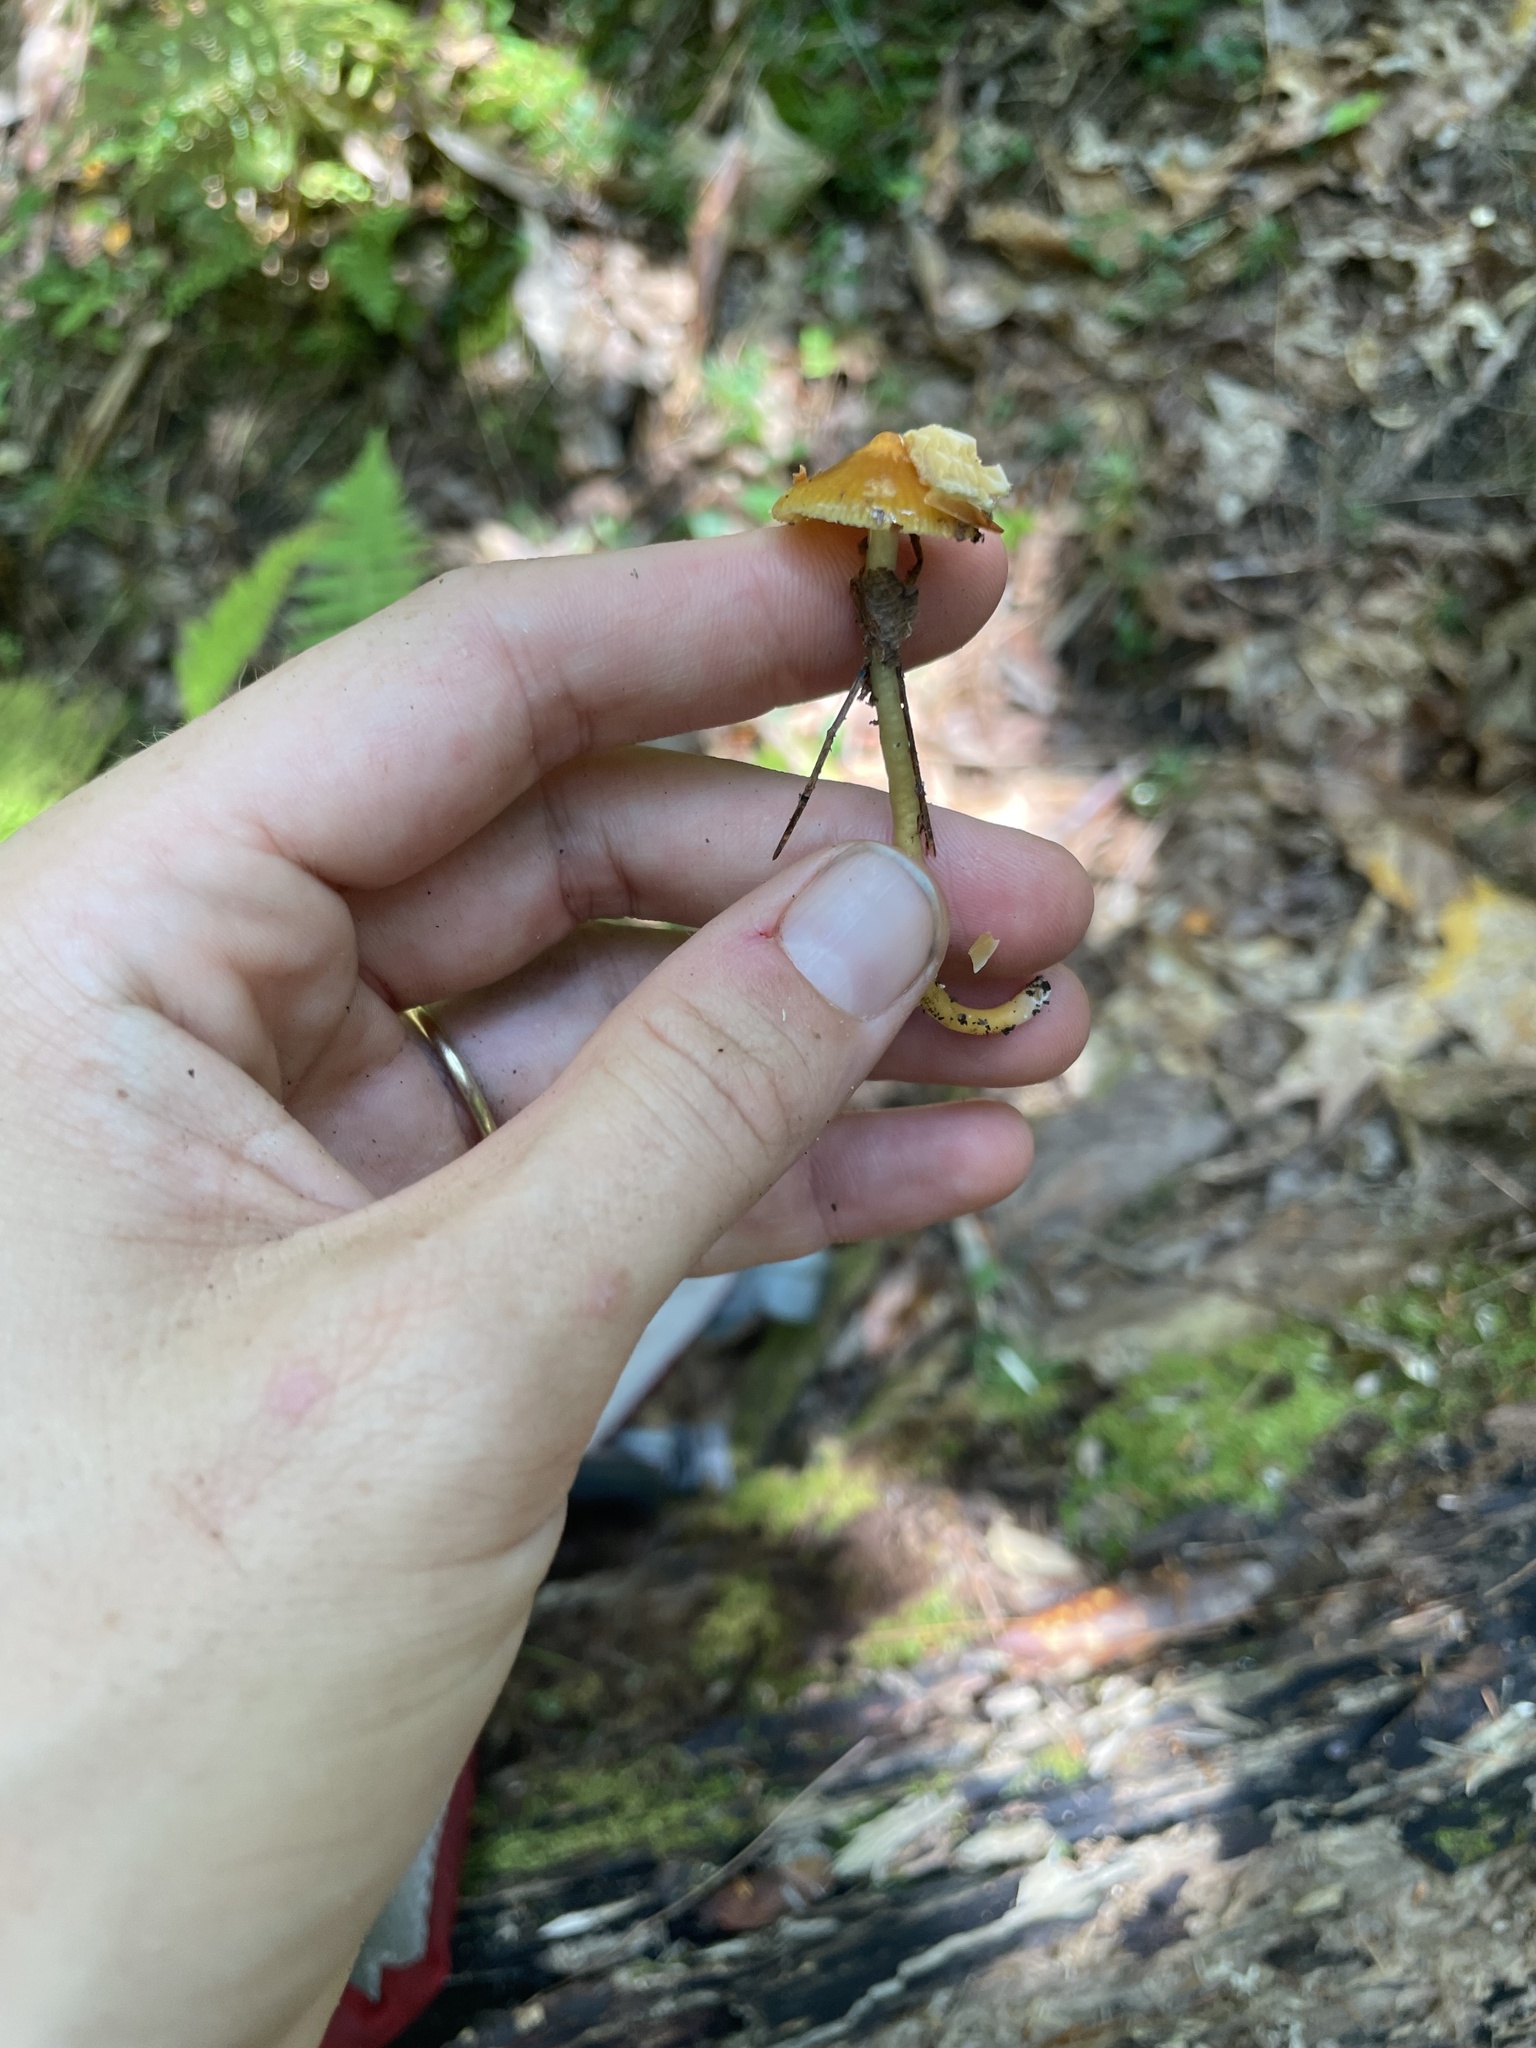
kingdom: Fungi
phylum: Basidiomycota
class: Agaricomycetes
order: Agaricales
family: Hygrophoraceae
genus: Gliophorus
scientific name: Gliophorus psittacinus
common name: Parrot wax-cap
